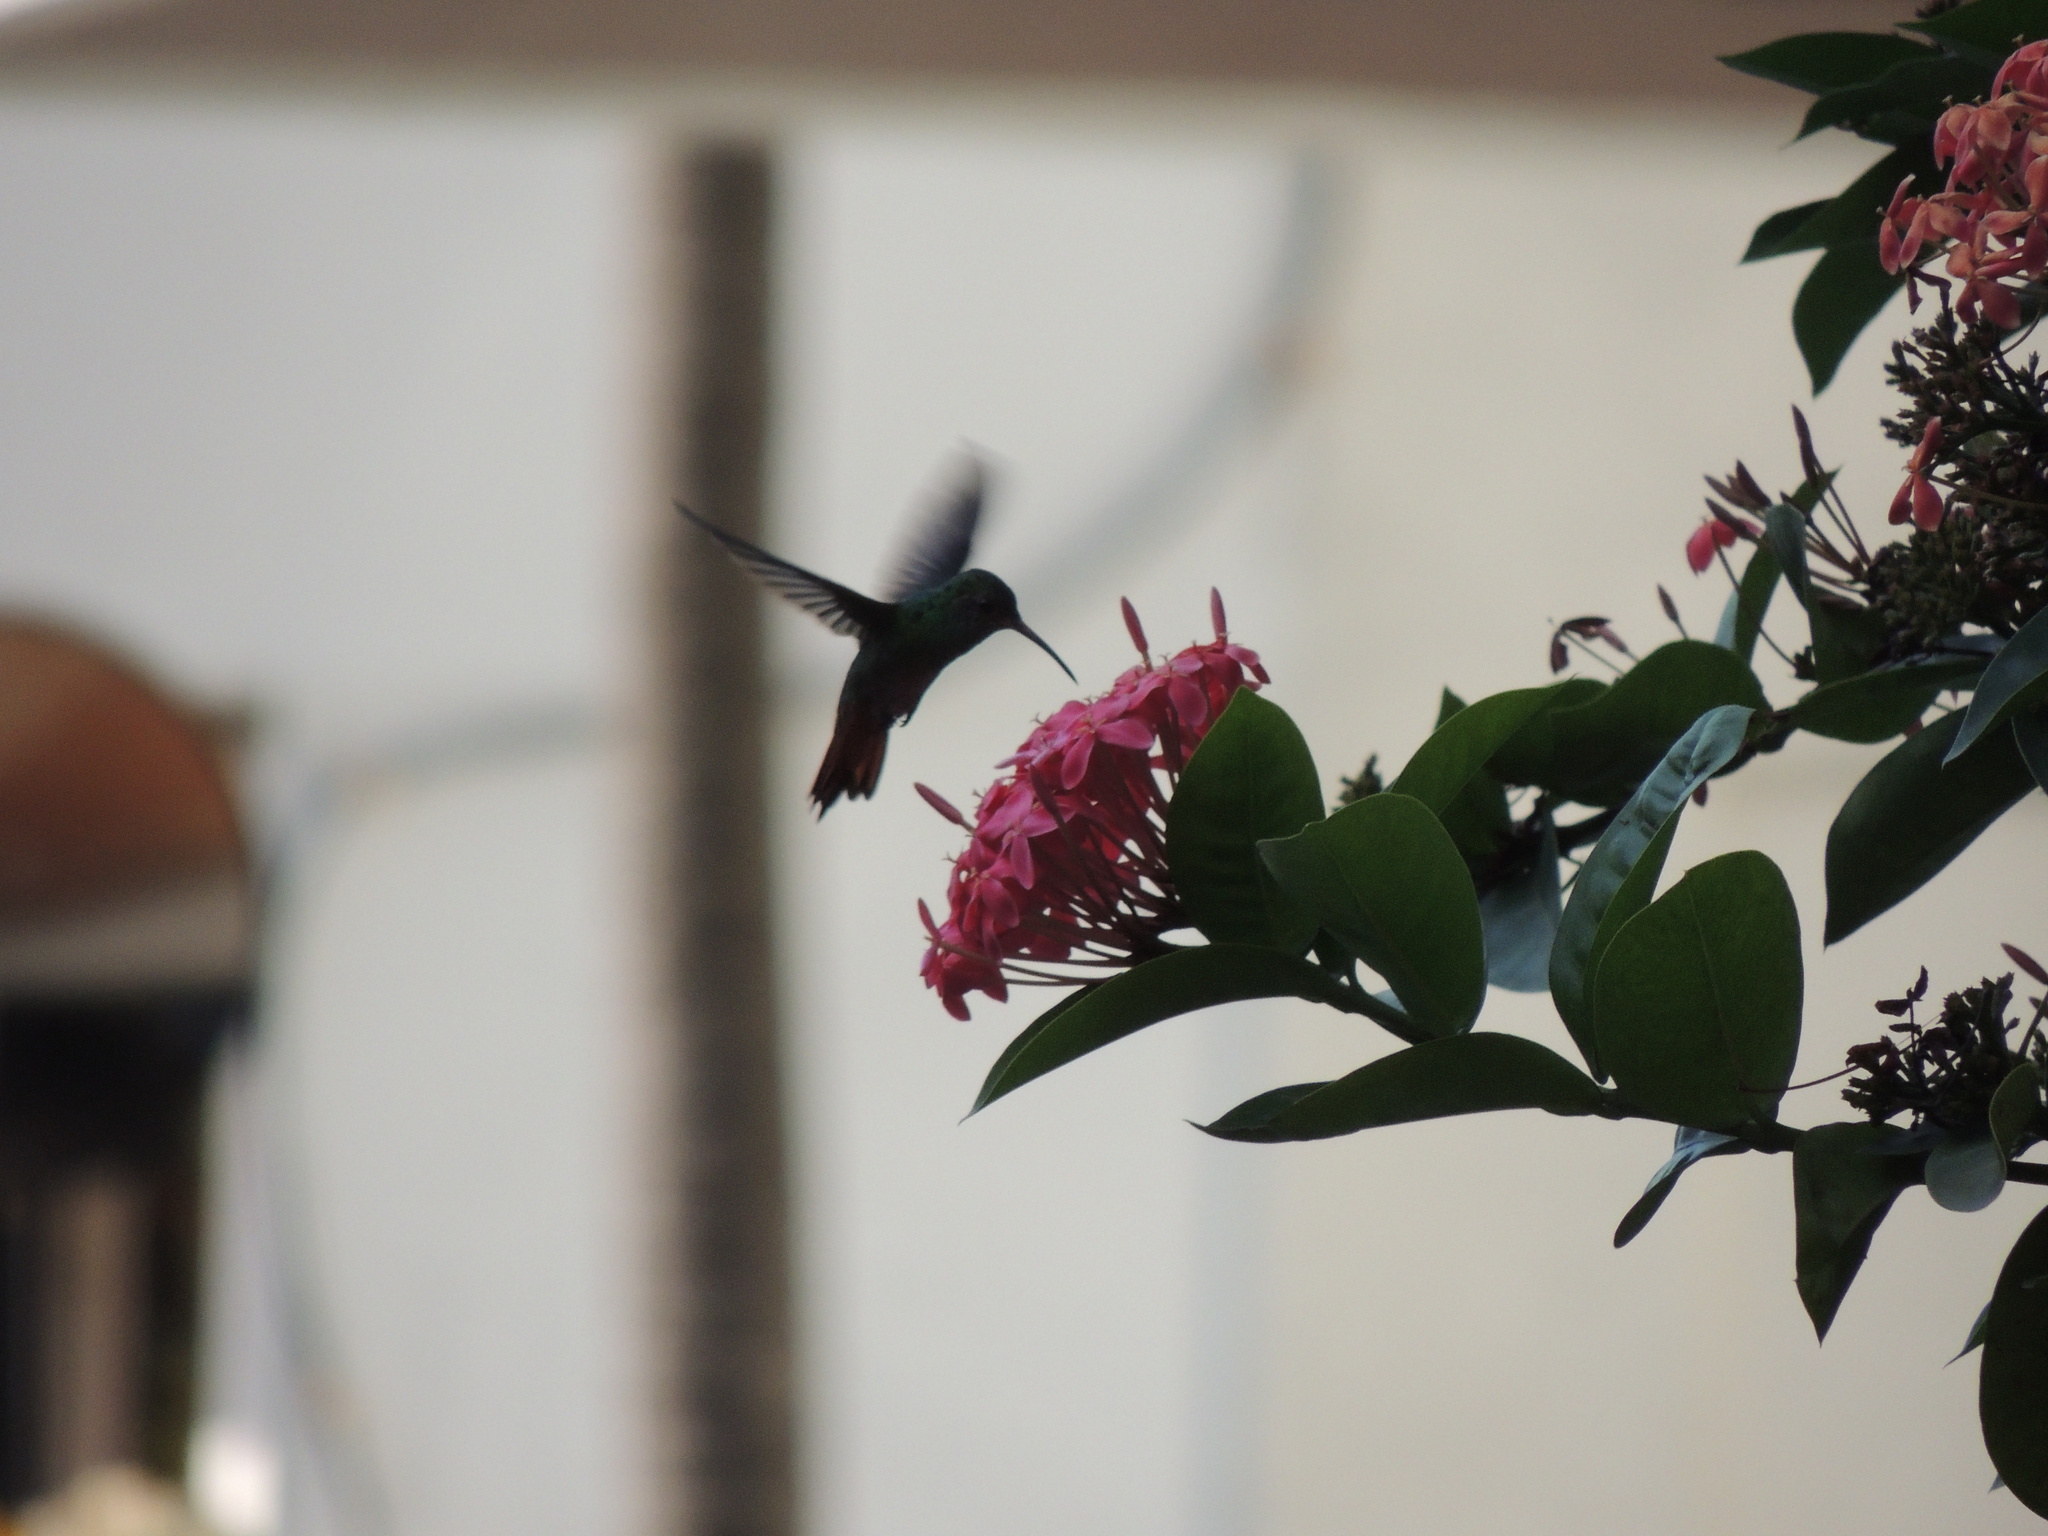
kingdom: Animalia
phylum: Chordata
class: Aves
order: Apodiformes
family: Trochilidae
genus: Anthracothorax
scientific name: Anthracothorax nigricollis
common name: Black-throated mango
